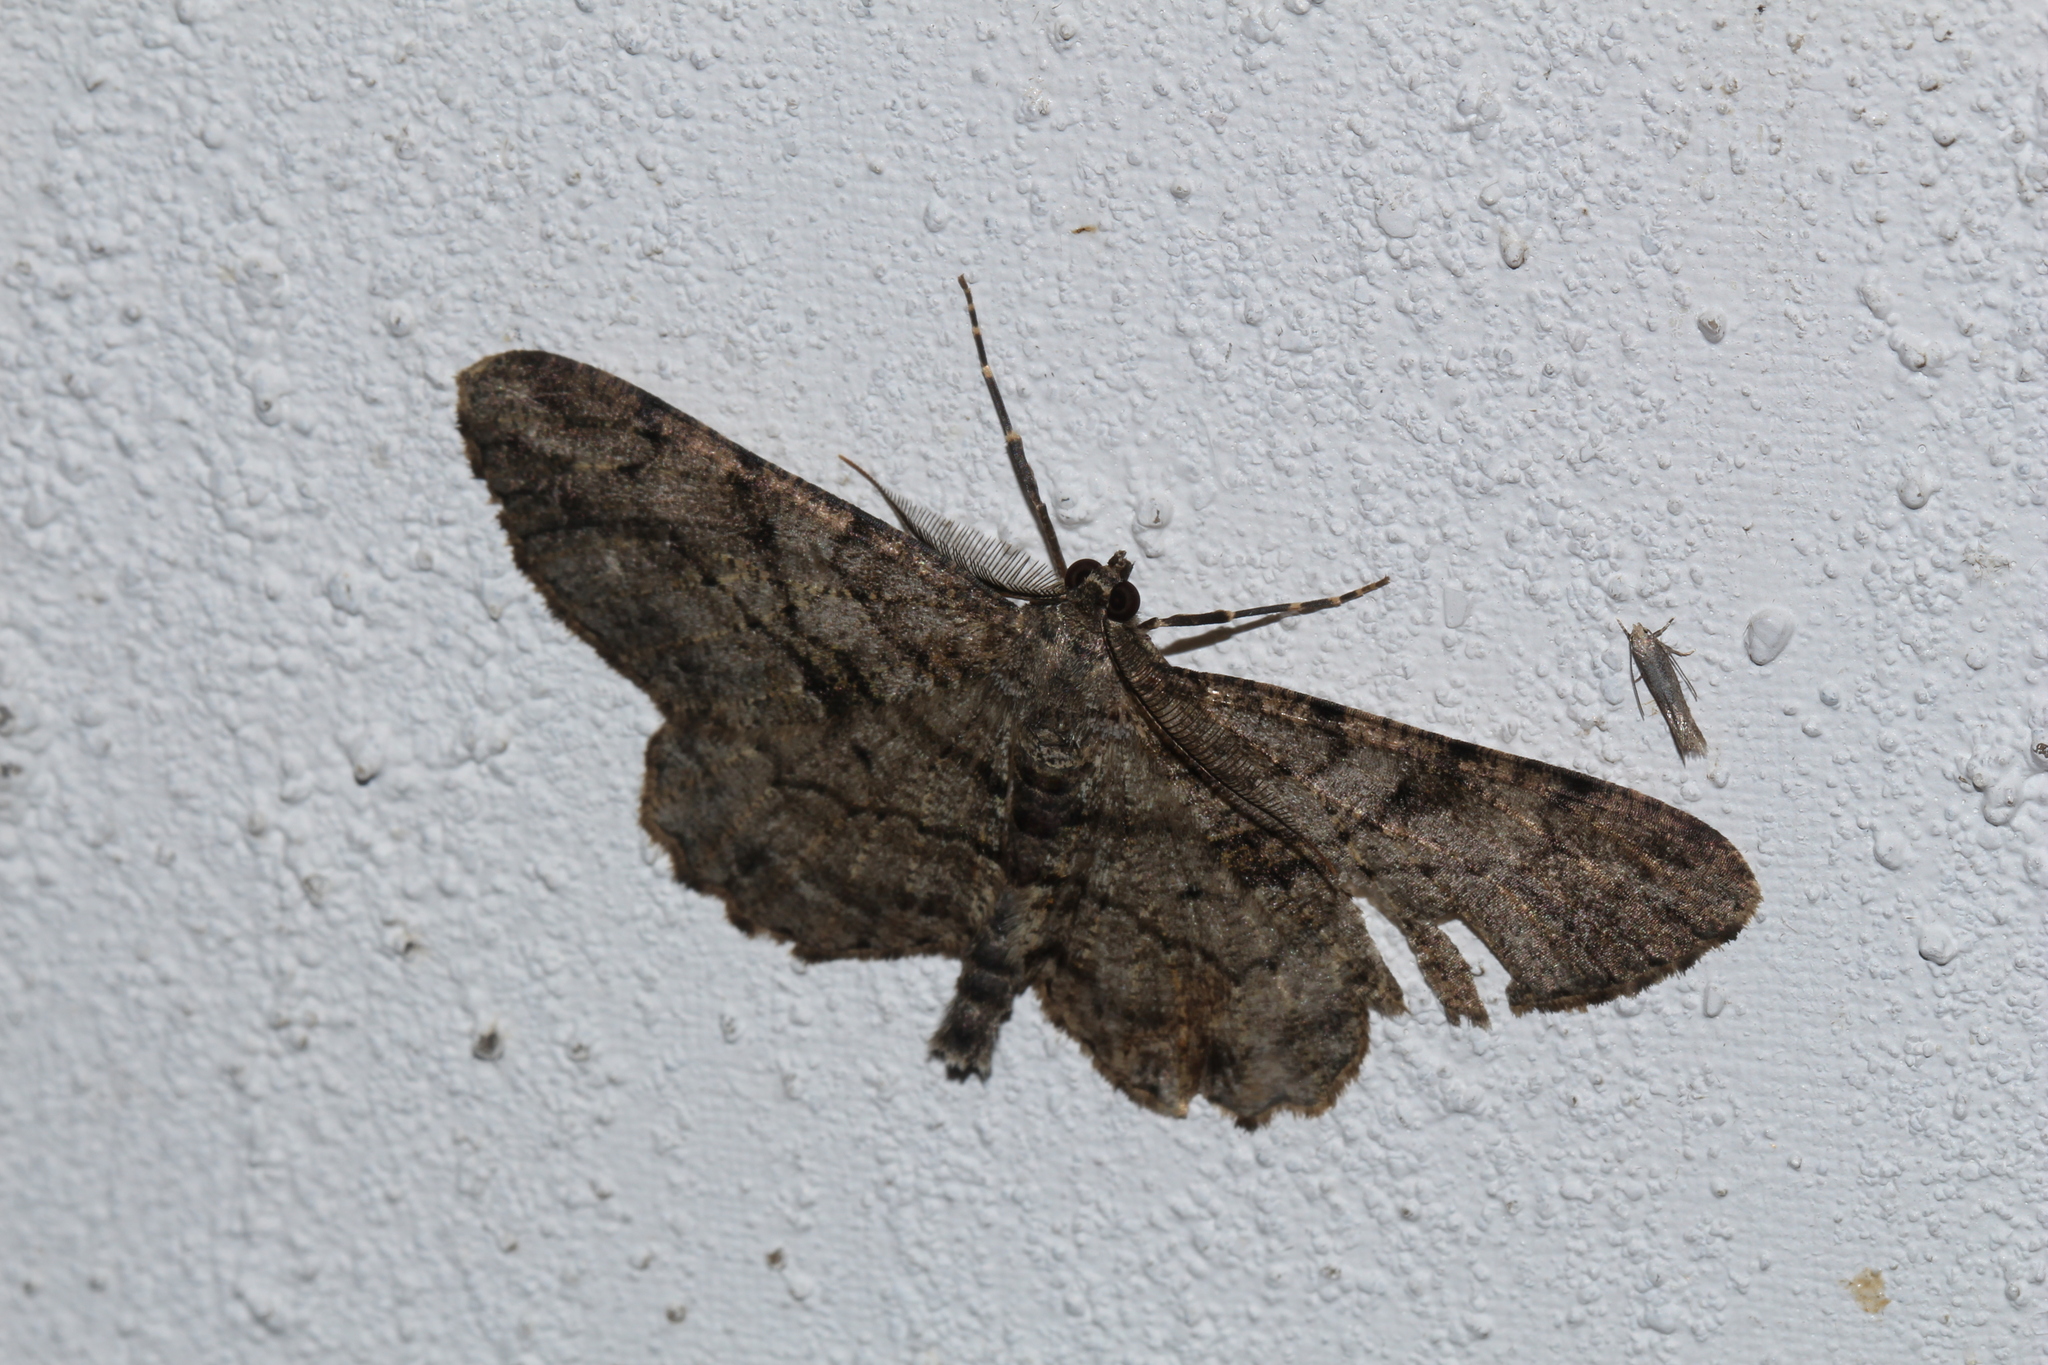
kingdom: Animalia
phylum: Arthropoda
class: Insecta
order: Lepidoptera
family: Geometridae
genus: Peribatodes
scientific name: Peribatodes rhomboidaria
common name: Willow beauty
